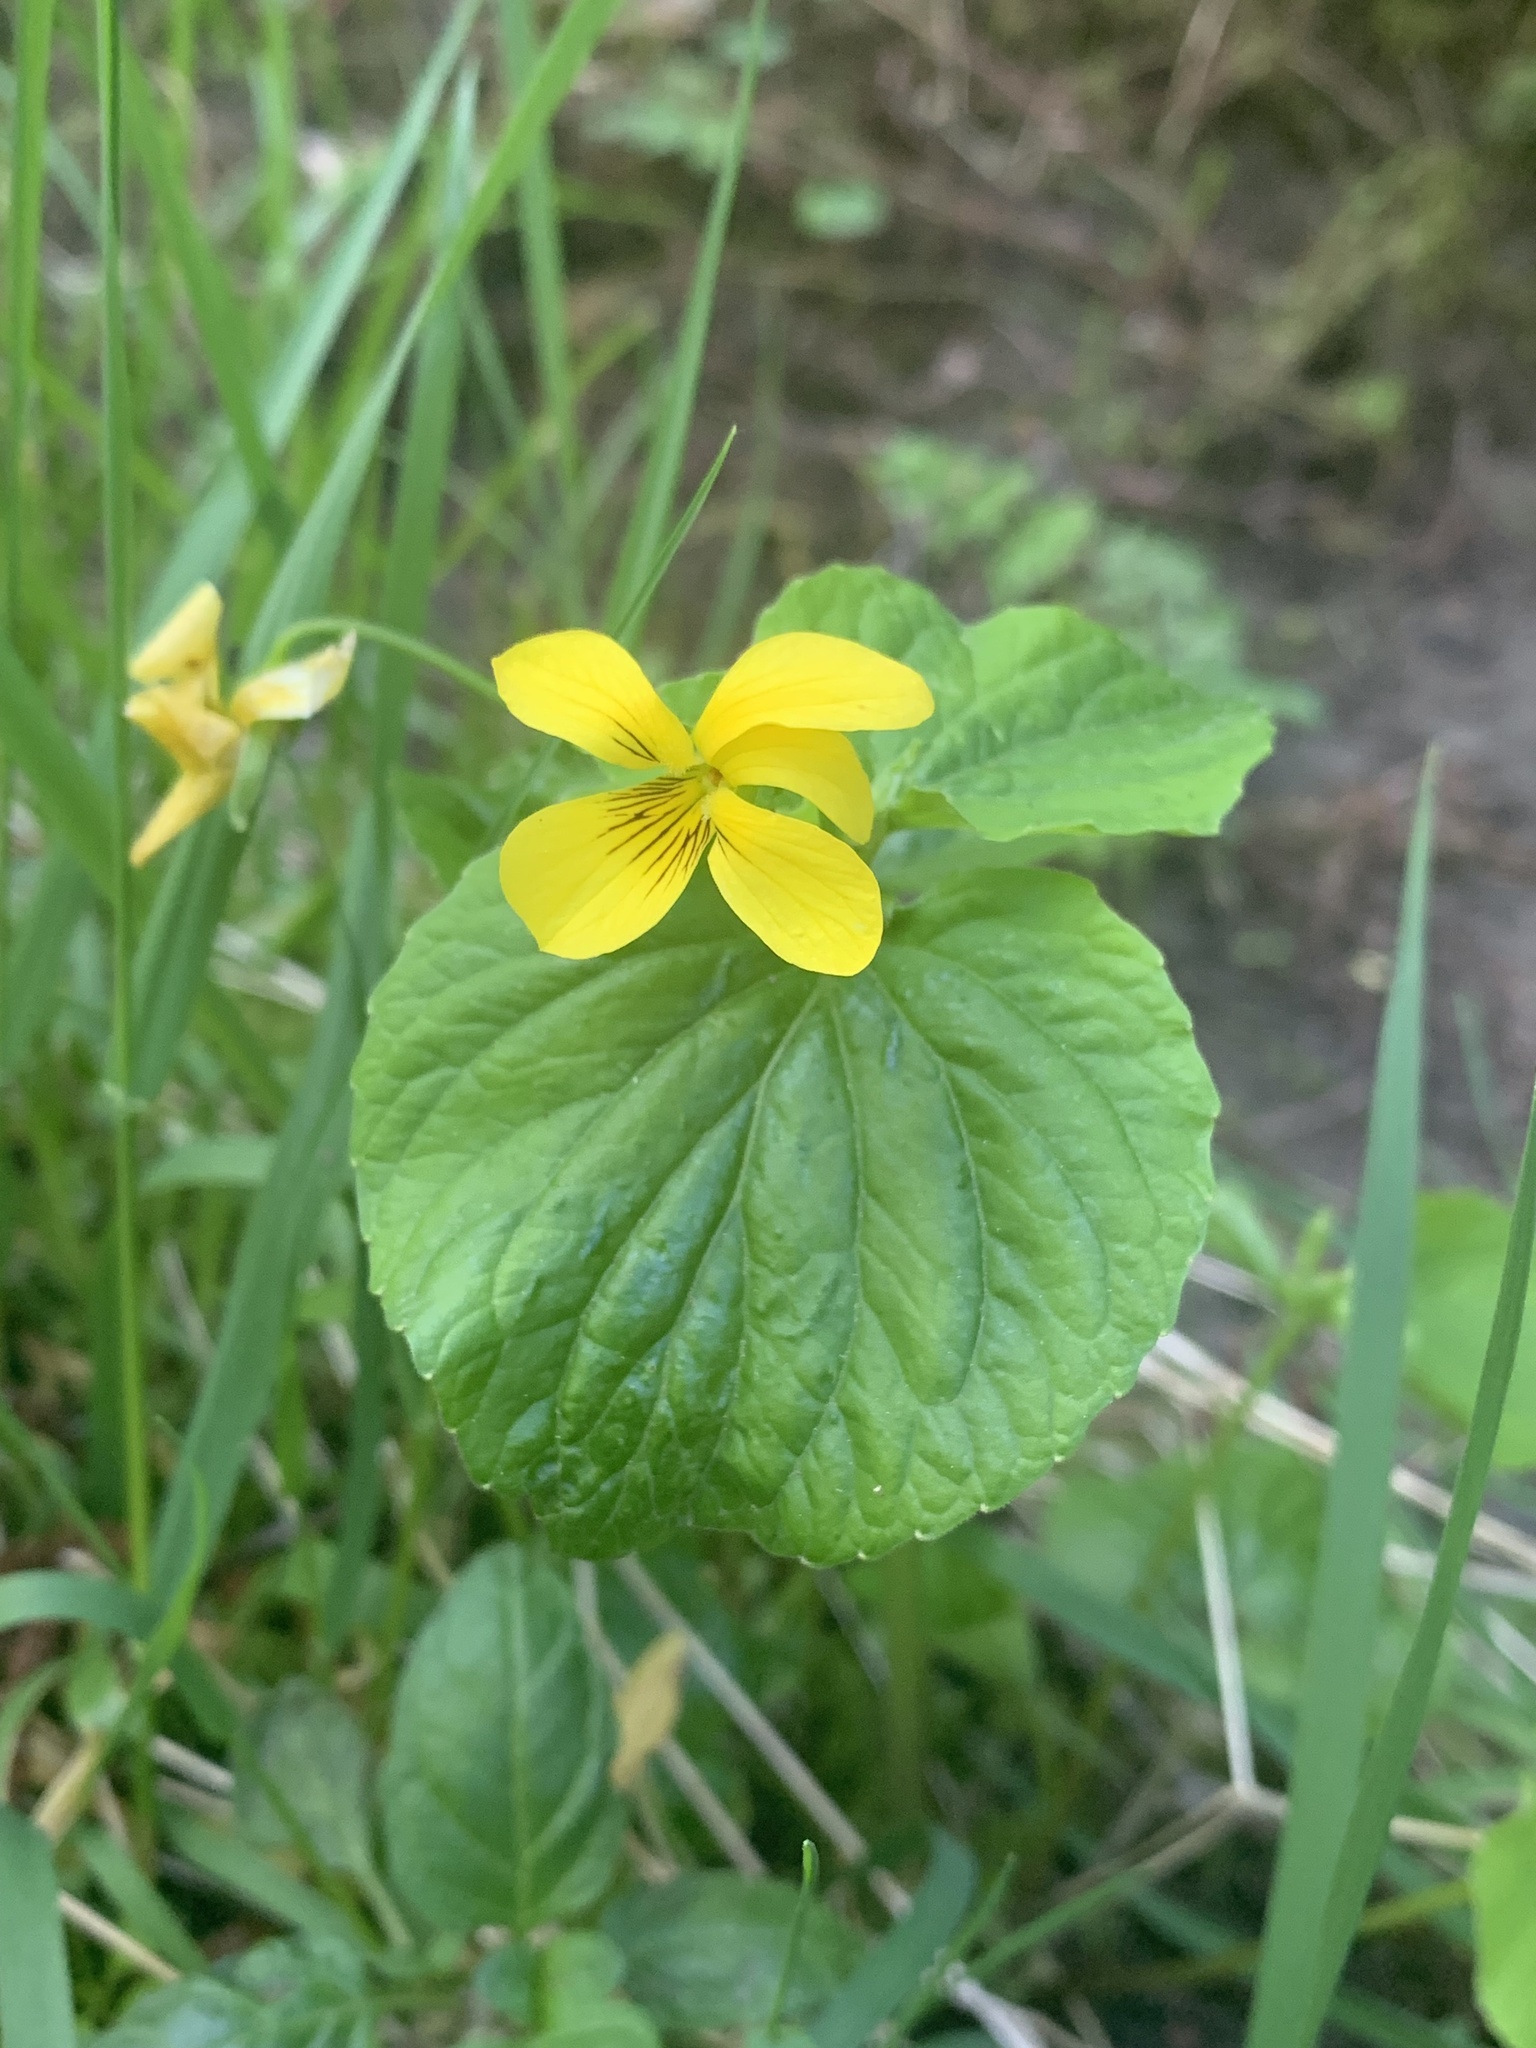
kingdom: Plantae
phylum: Tracheophyta
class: Magnoliopsida
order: Malpighiales
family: Violaceae
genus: Viola
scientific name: Viola glabella
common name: Stream violet
